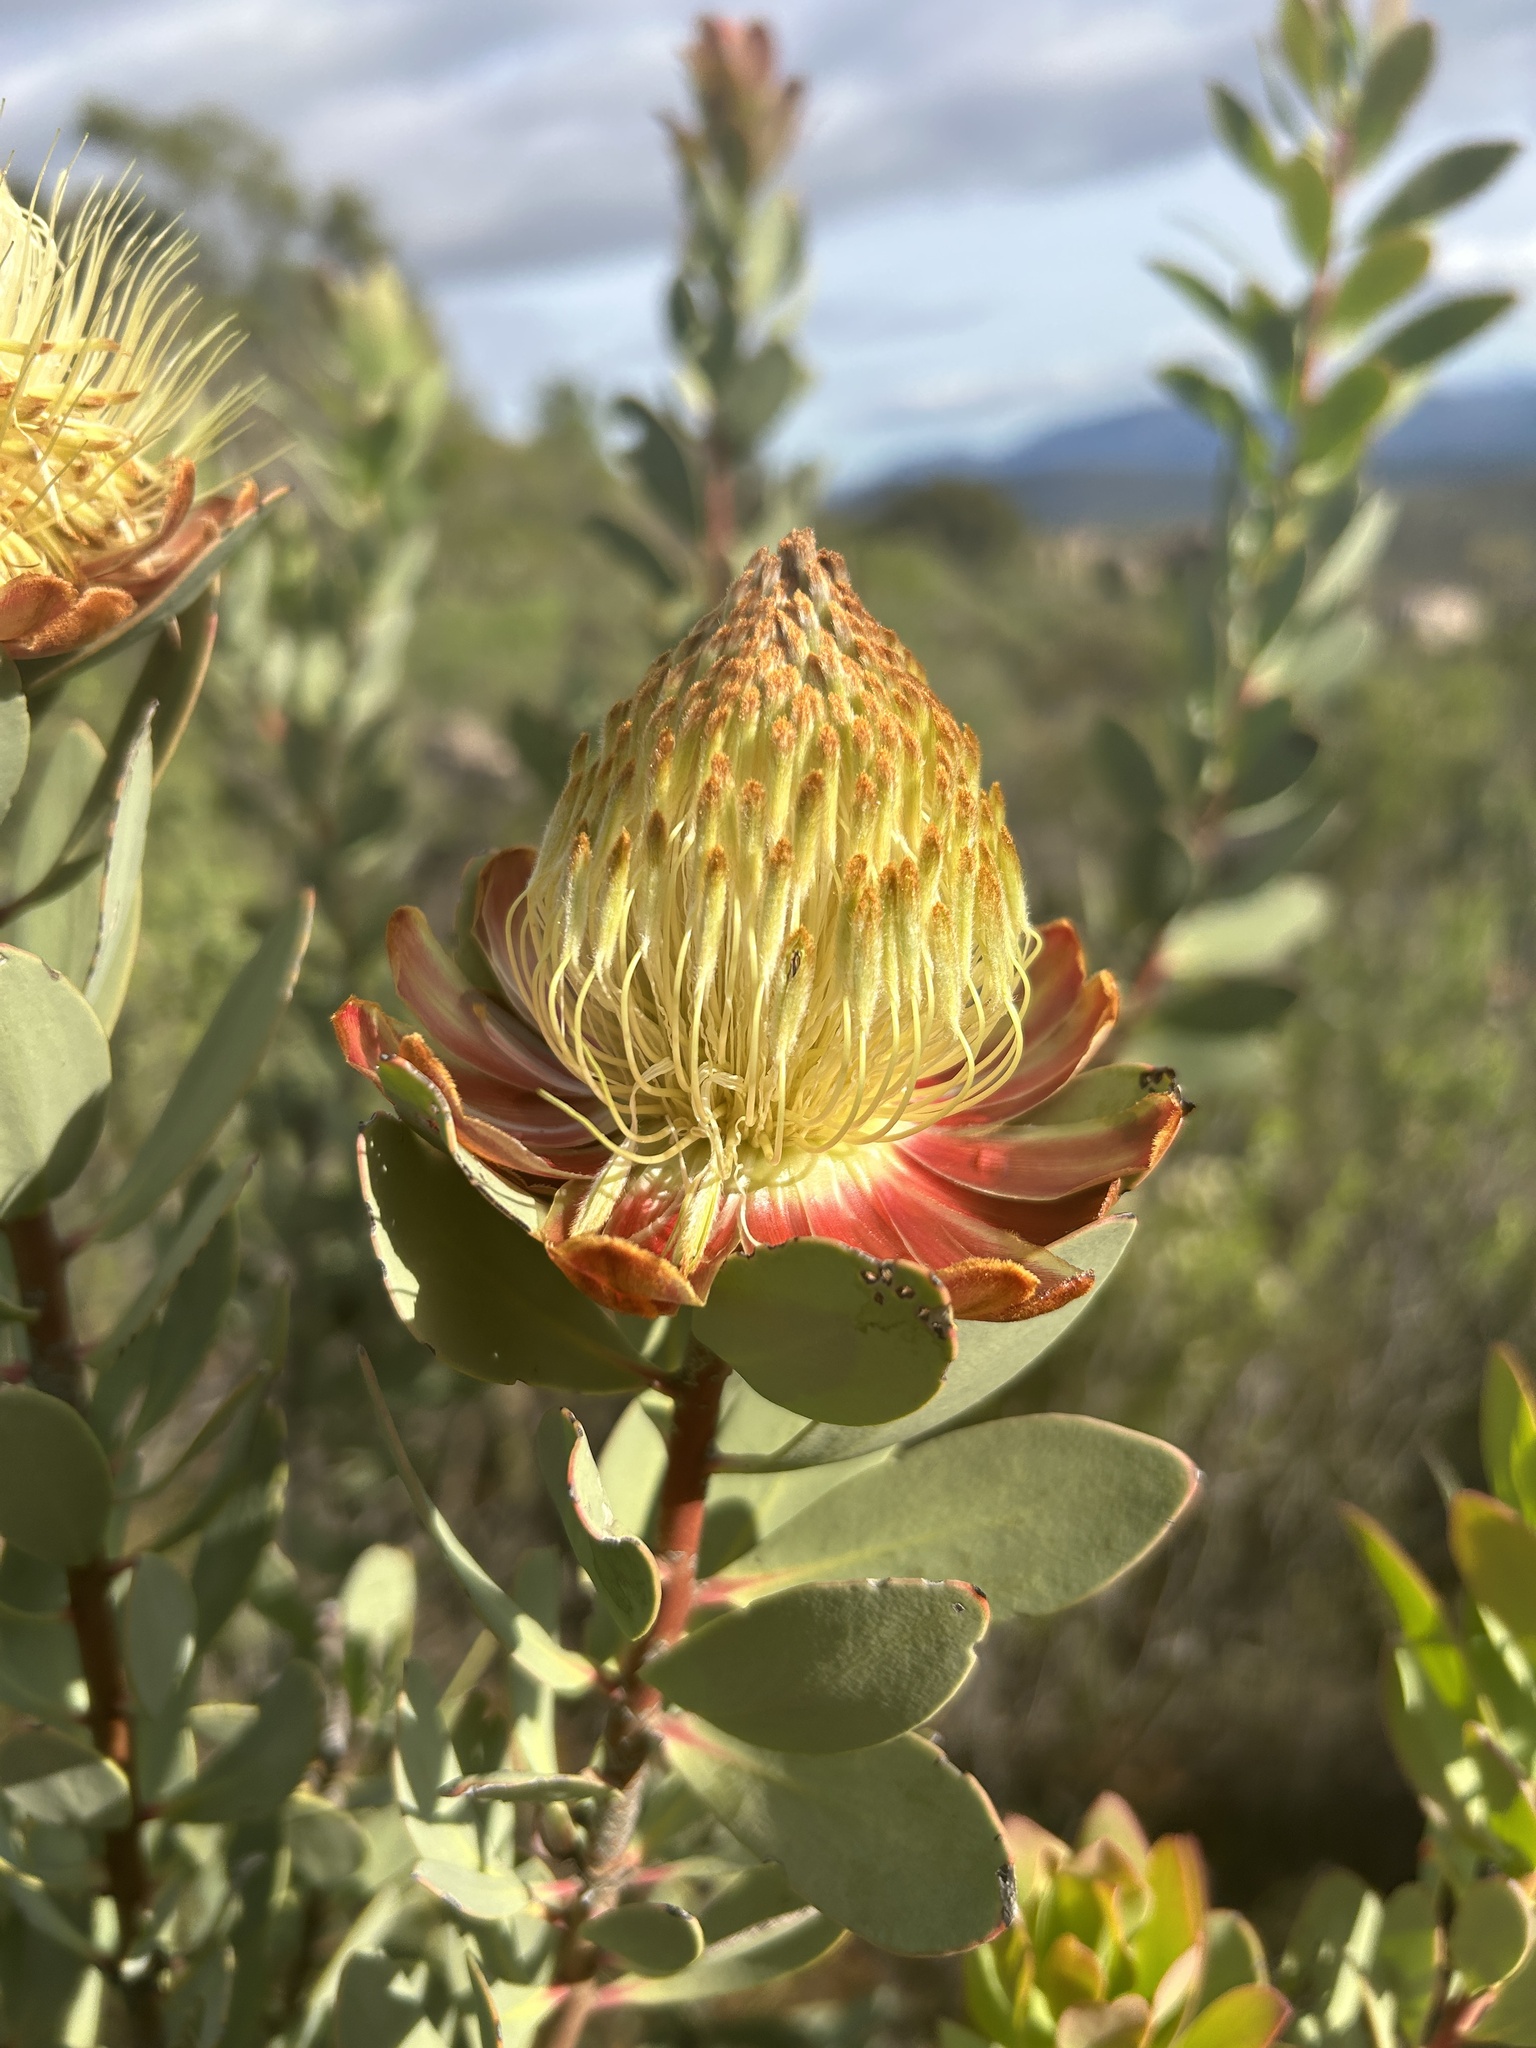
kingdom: Plantae
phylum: Tracheophyta
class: Magnoliopsida
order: Proteales
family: Proteaceae
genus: Protea
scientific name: Protea glabra
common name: Chestnut sugarbush
